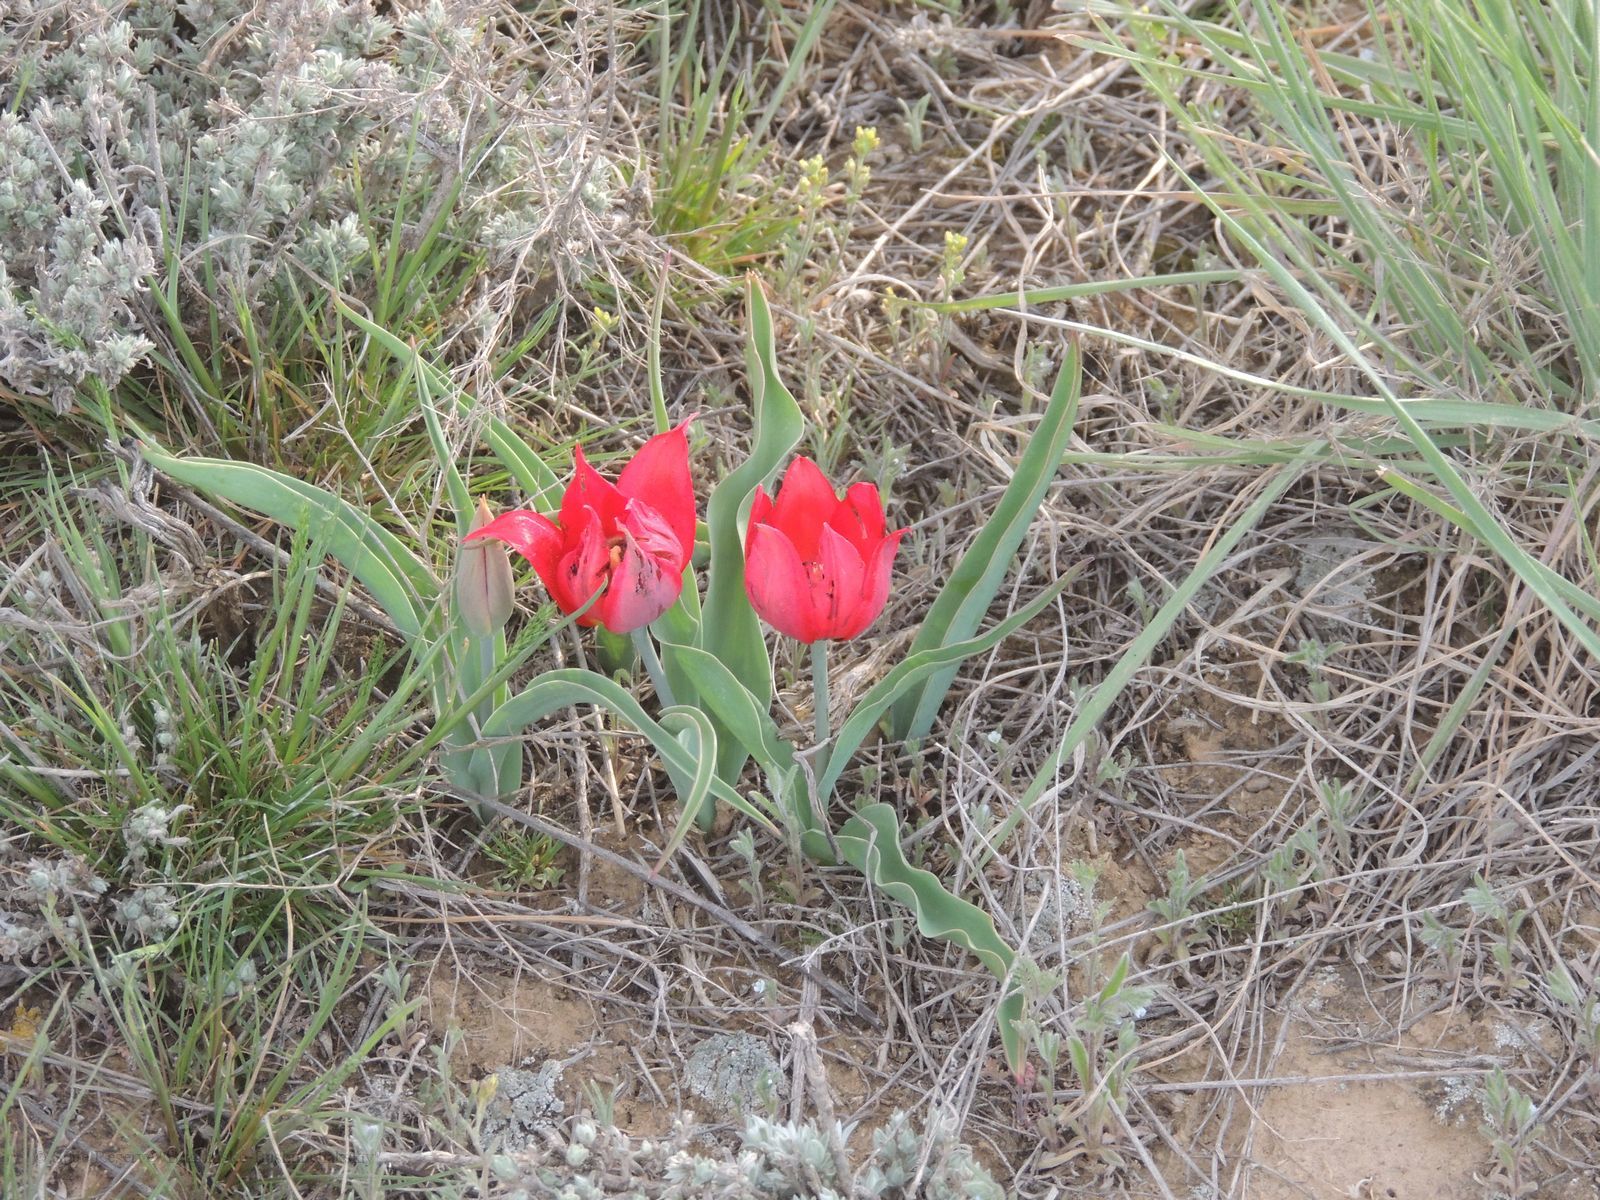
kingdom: Plantae
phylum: Tracheophyta
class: Liliopsida
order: Liliales
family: Liliaceae
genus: Tulipa
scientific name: Tulipa suaveolens
